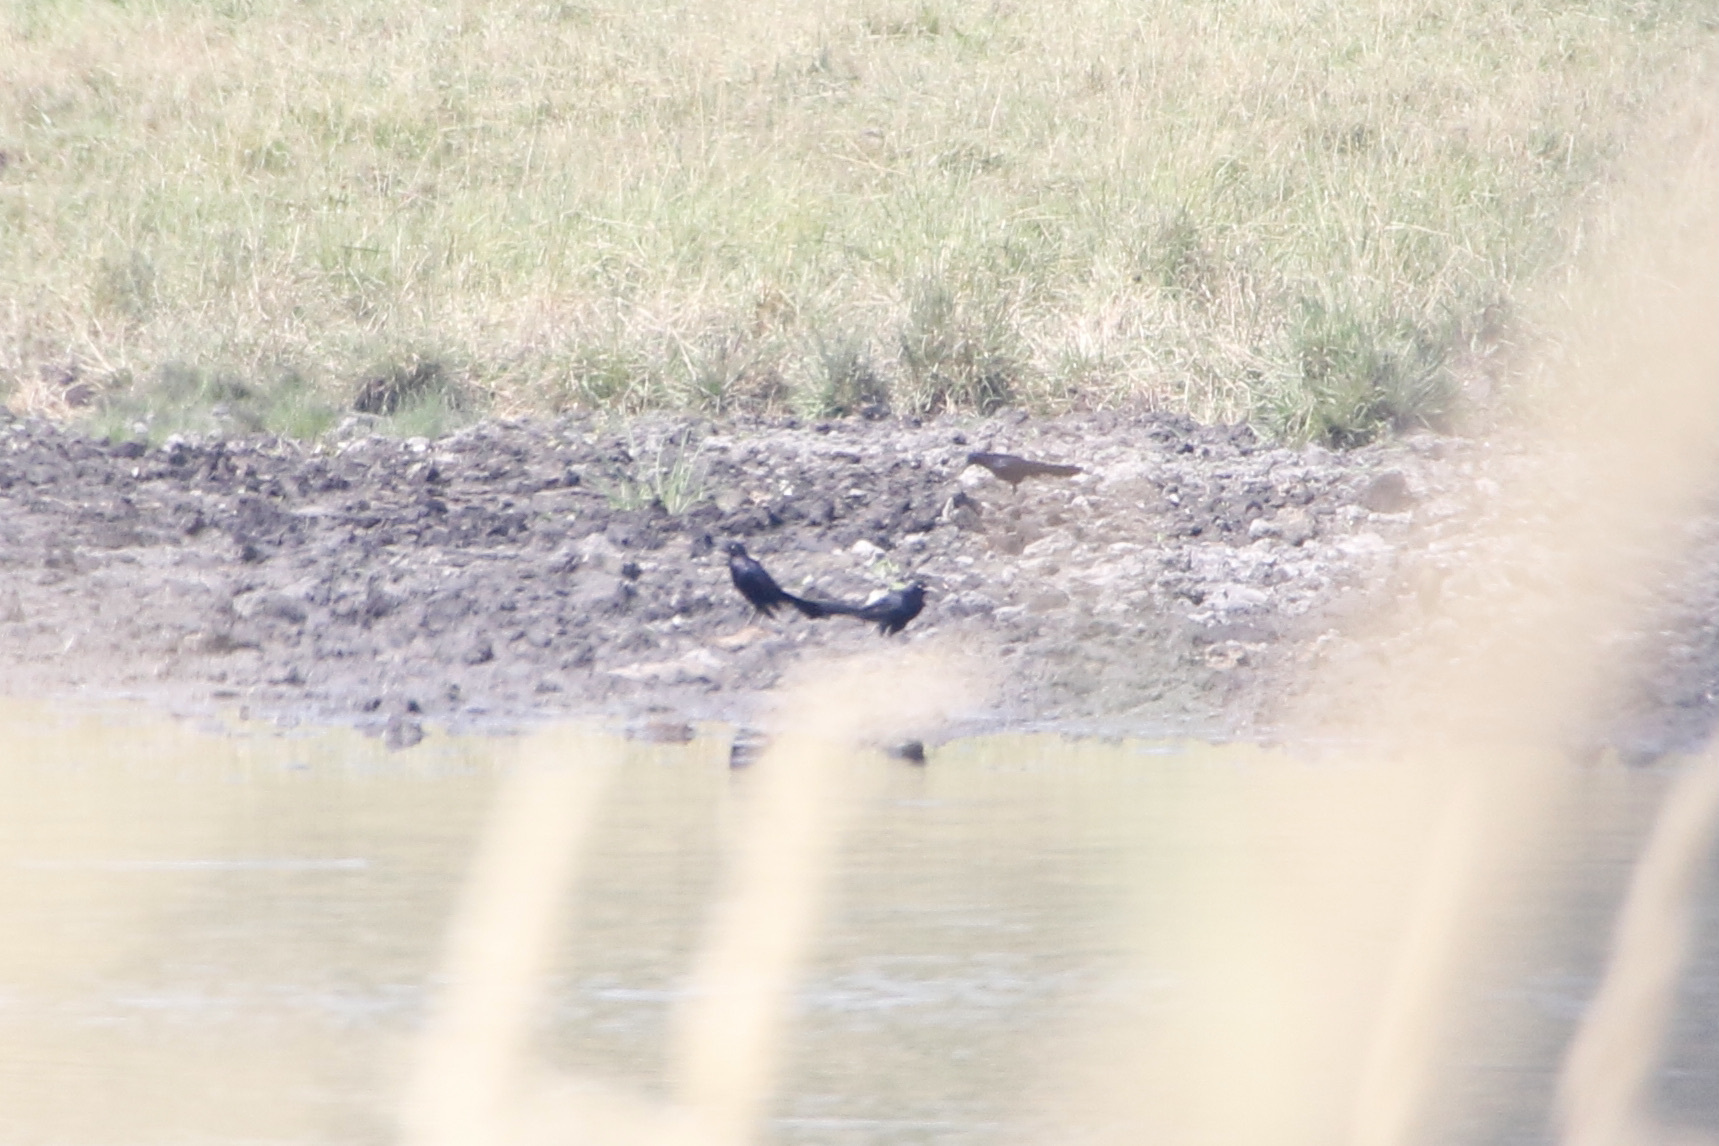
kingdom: Animalia
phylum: Chordata
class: Aves
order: Passeriformes
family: Icteridae
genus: Quiscalus
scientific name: Quiscalus mexicanus
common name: Great-tailed grackle
